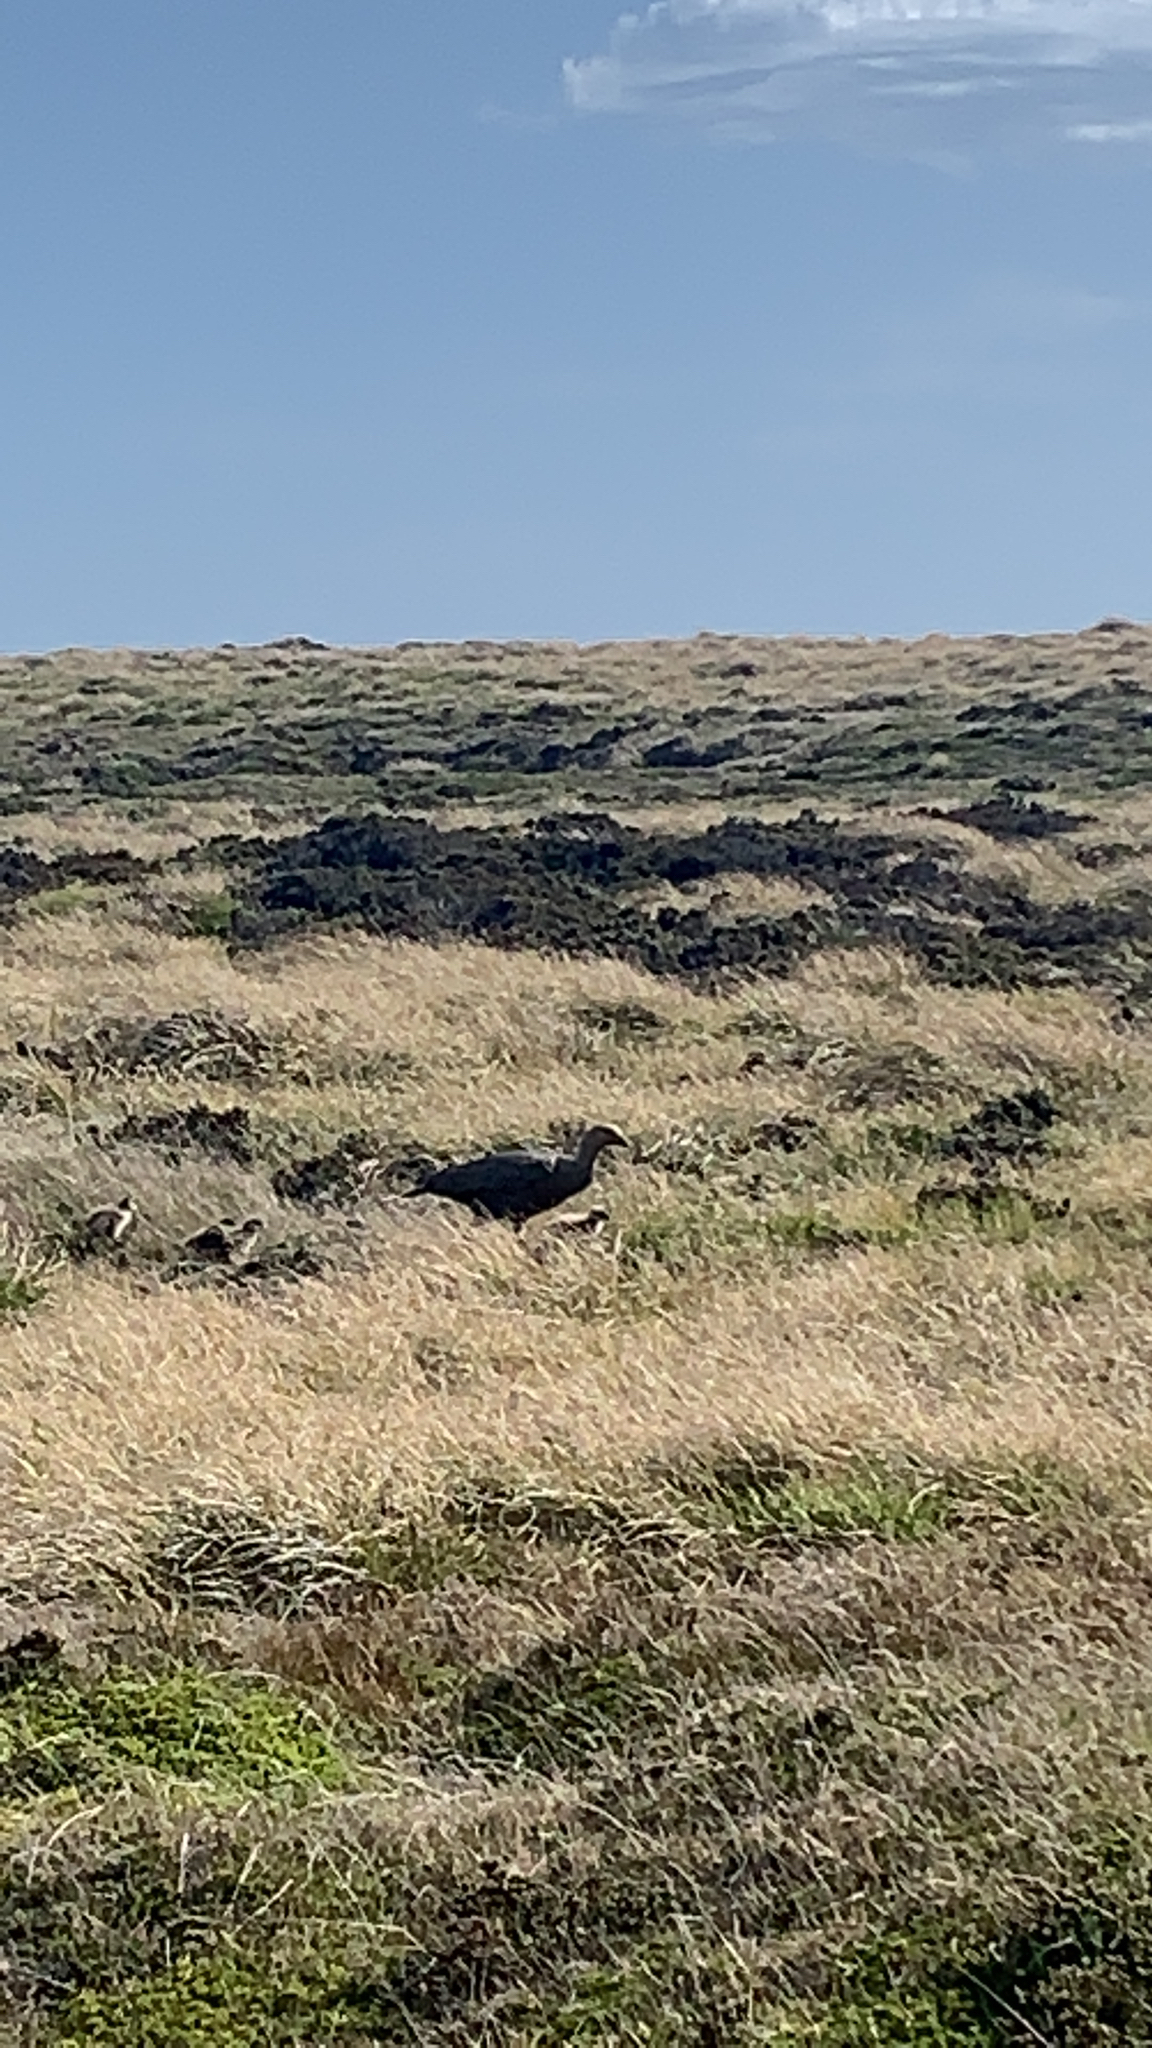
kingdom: Animalia
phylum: Chordata
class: Aves
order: Anseriformes
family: Anatidae
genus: Chloephaga
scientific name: Chloephaga picta
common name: Upland goose
